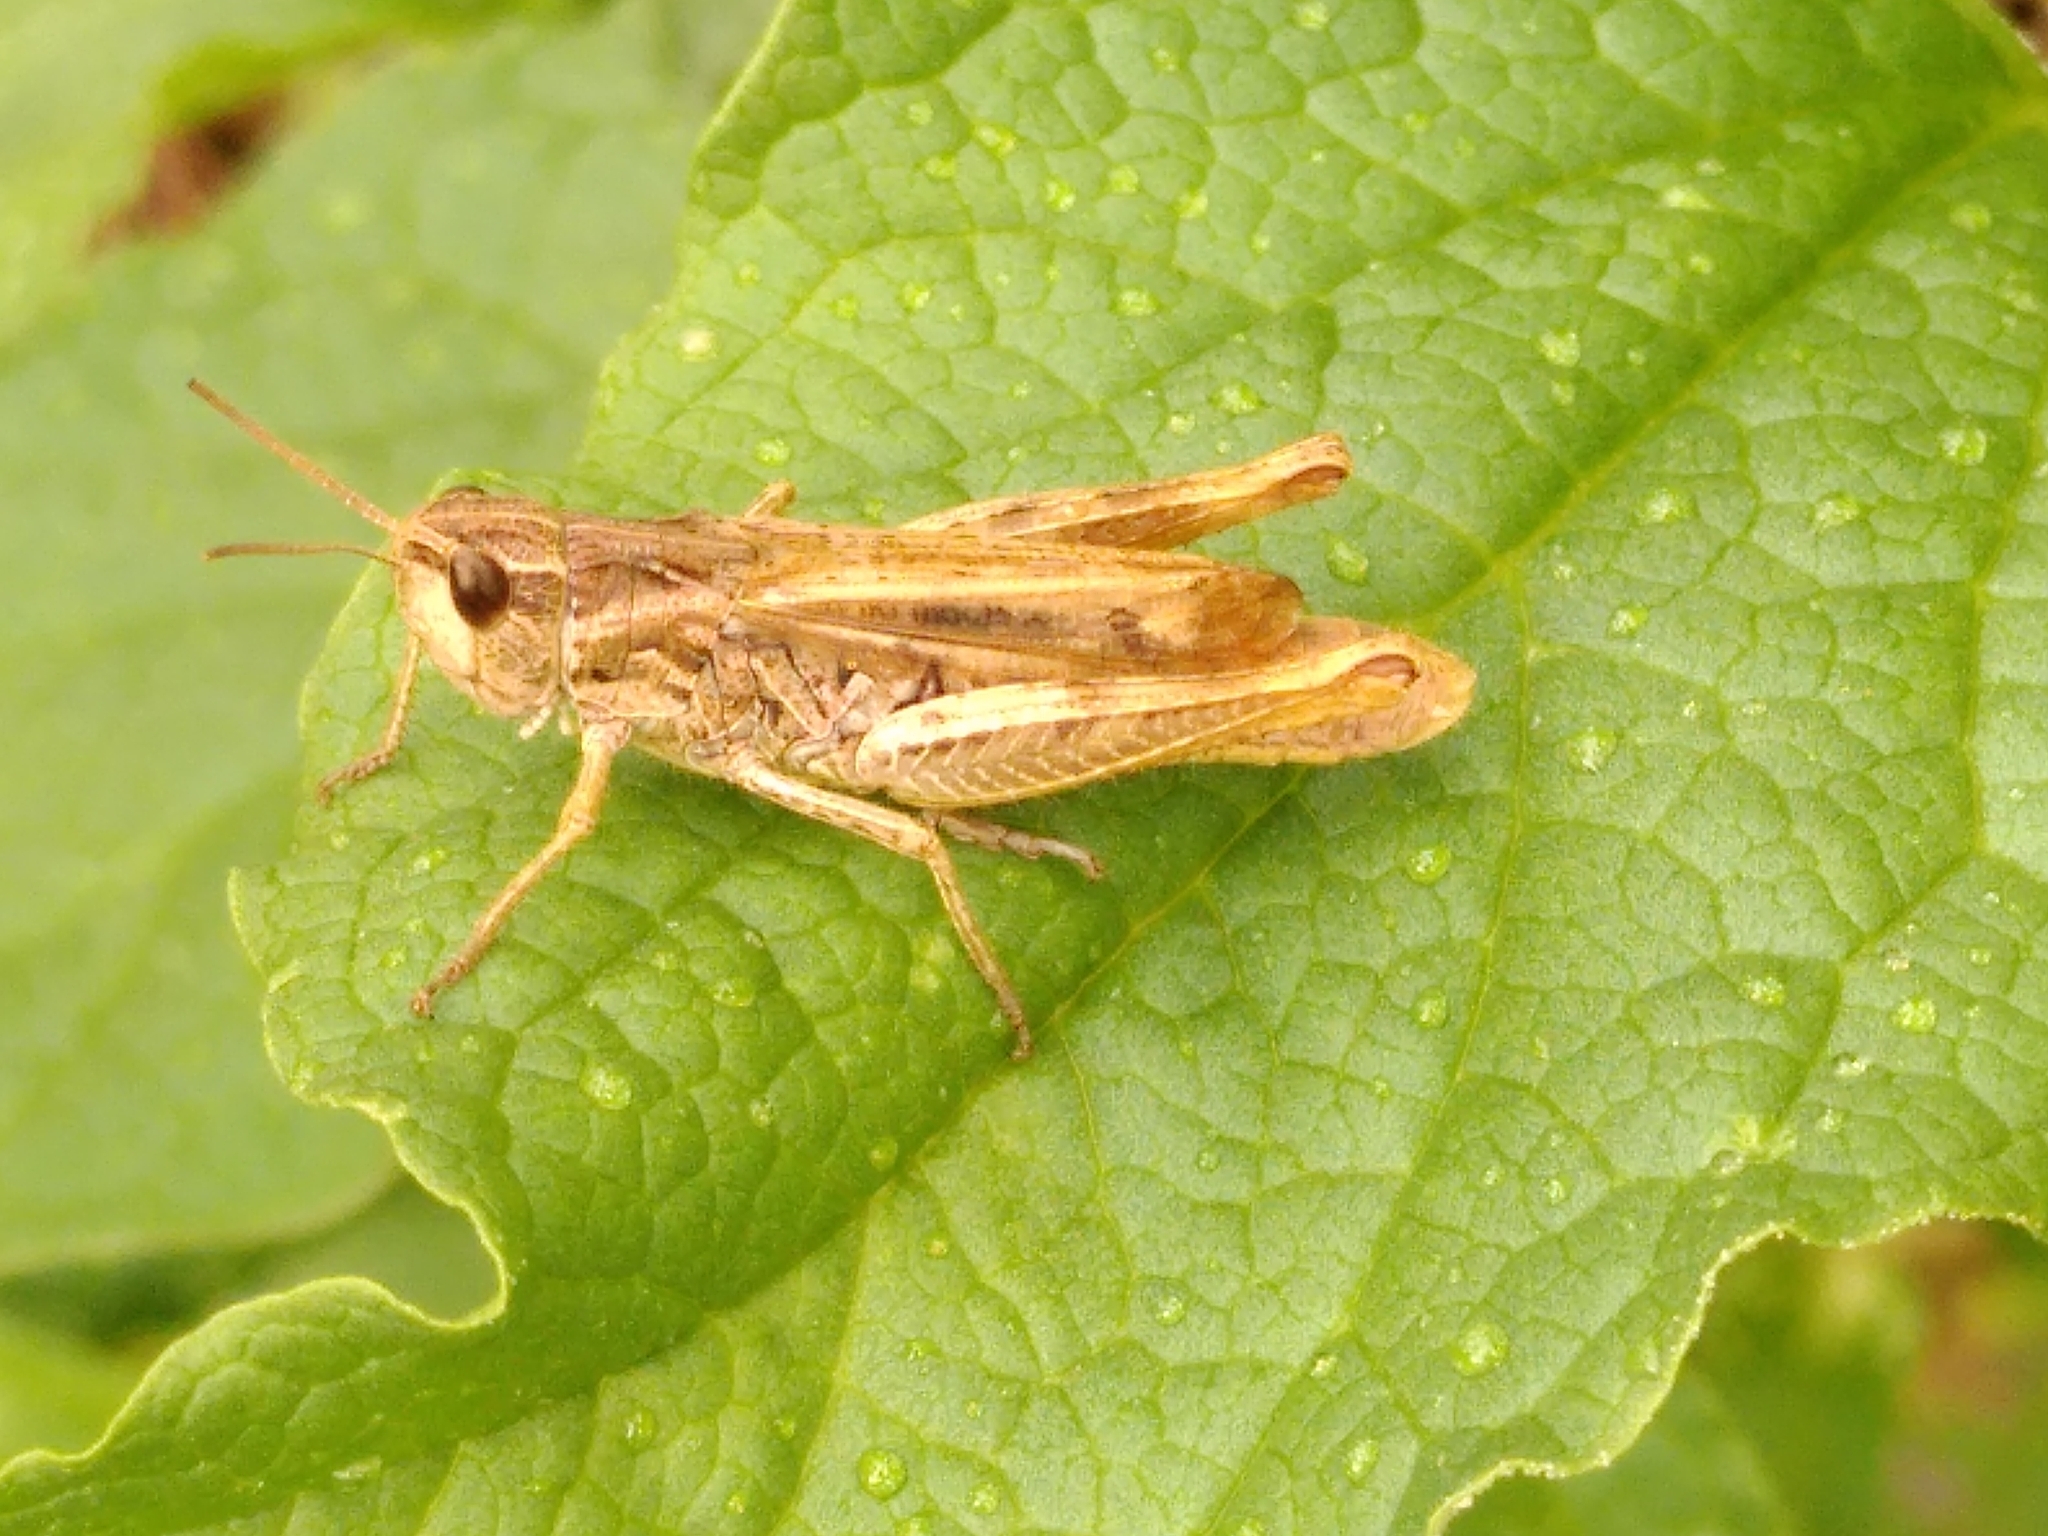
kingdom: Animalia
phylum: Arthropoda
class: Insecta
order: Orthoptera
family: Acrididae
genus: Chorthippus
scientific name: Chorthippus apricarius
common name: Upland field grasshopper
